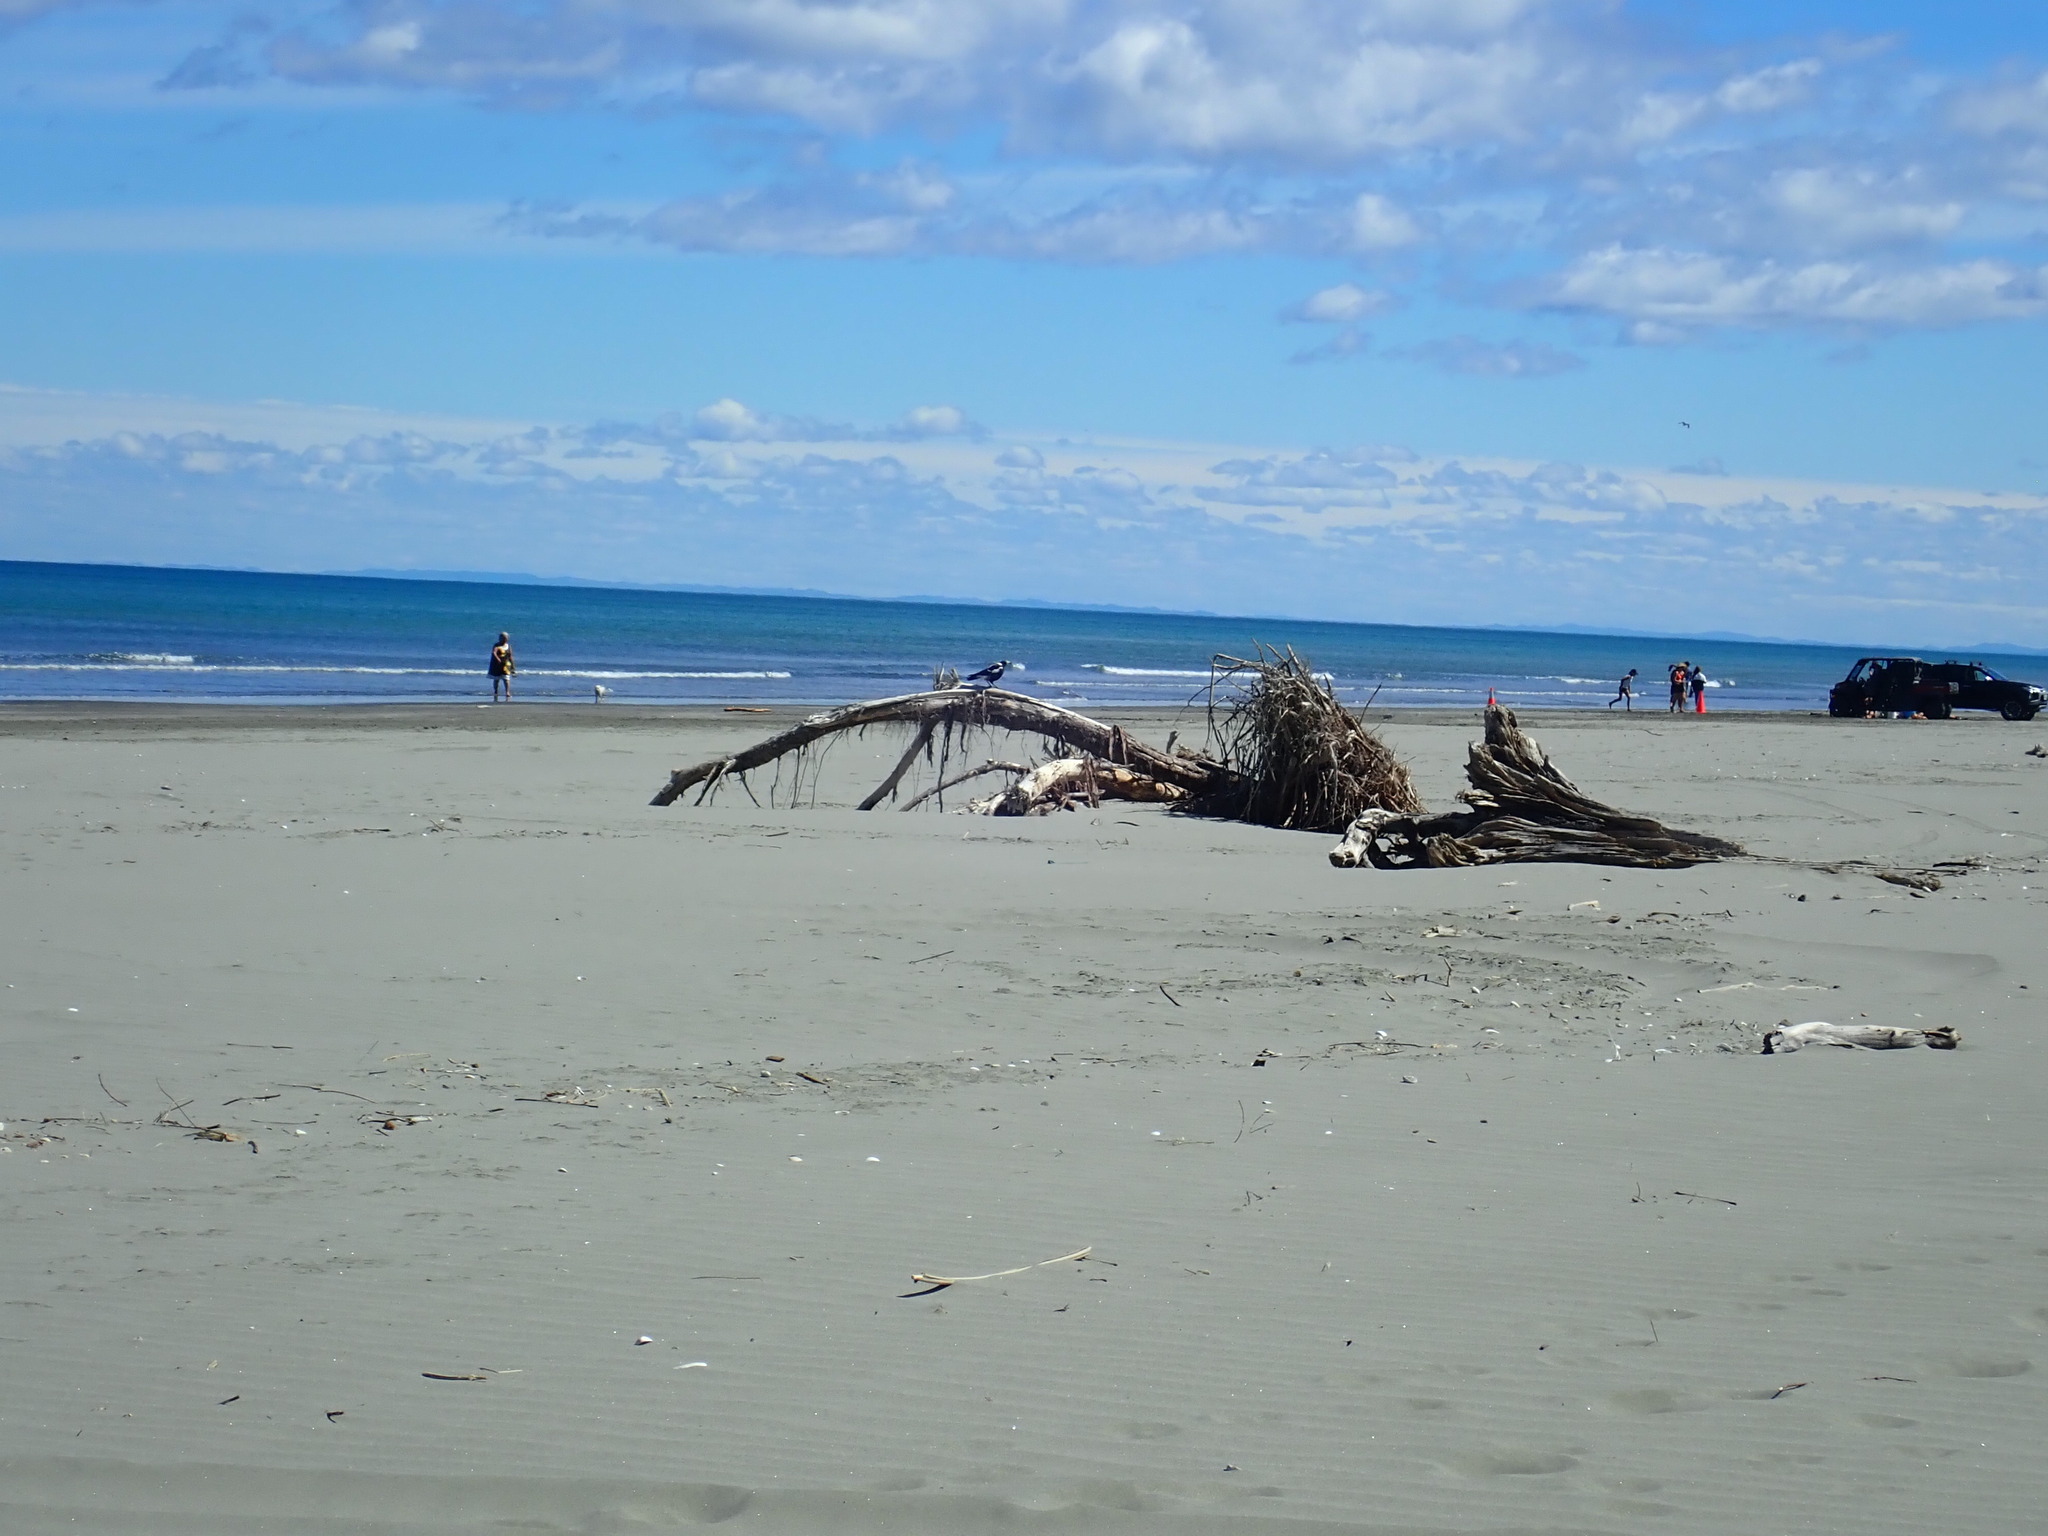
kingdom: Animalia
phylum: Chordata
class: Aves
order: Passeriformes
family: Cracticidae
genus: Gymnorhina
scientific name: Gymnorhina tibicen
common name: Australian magpie
